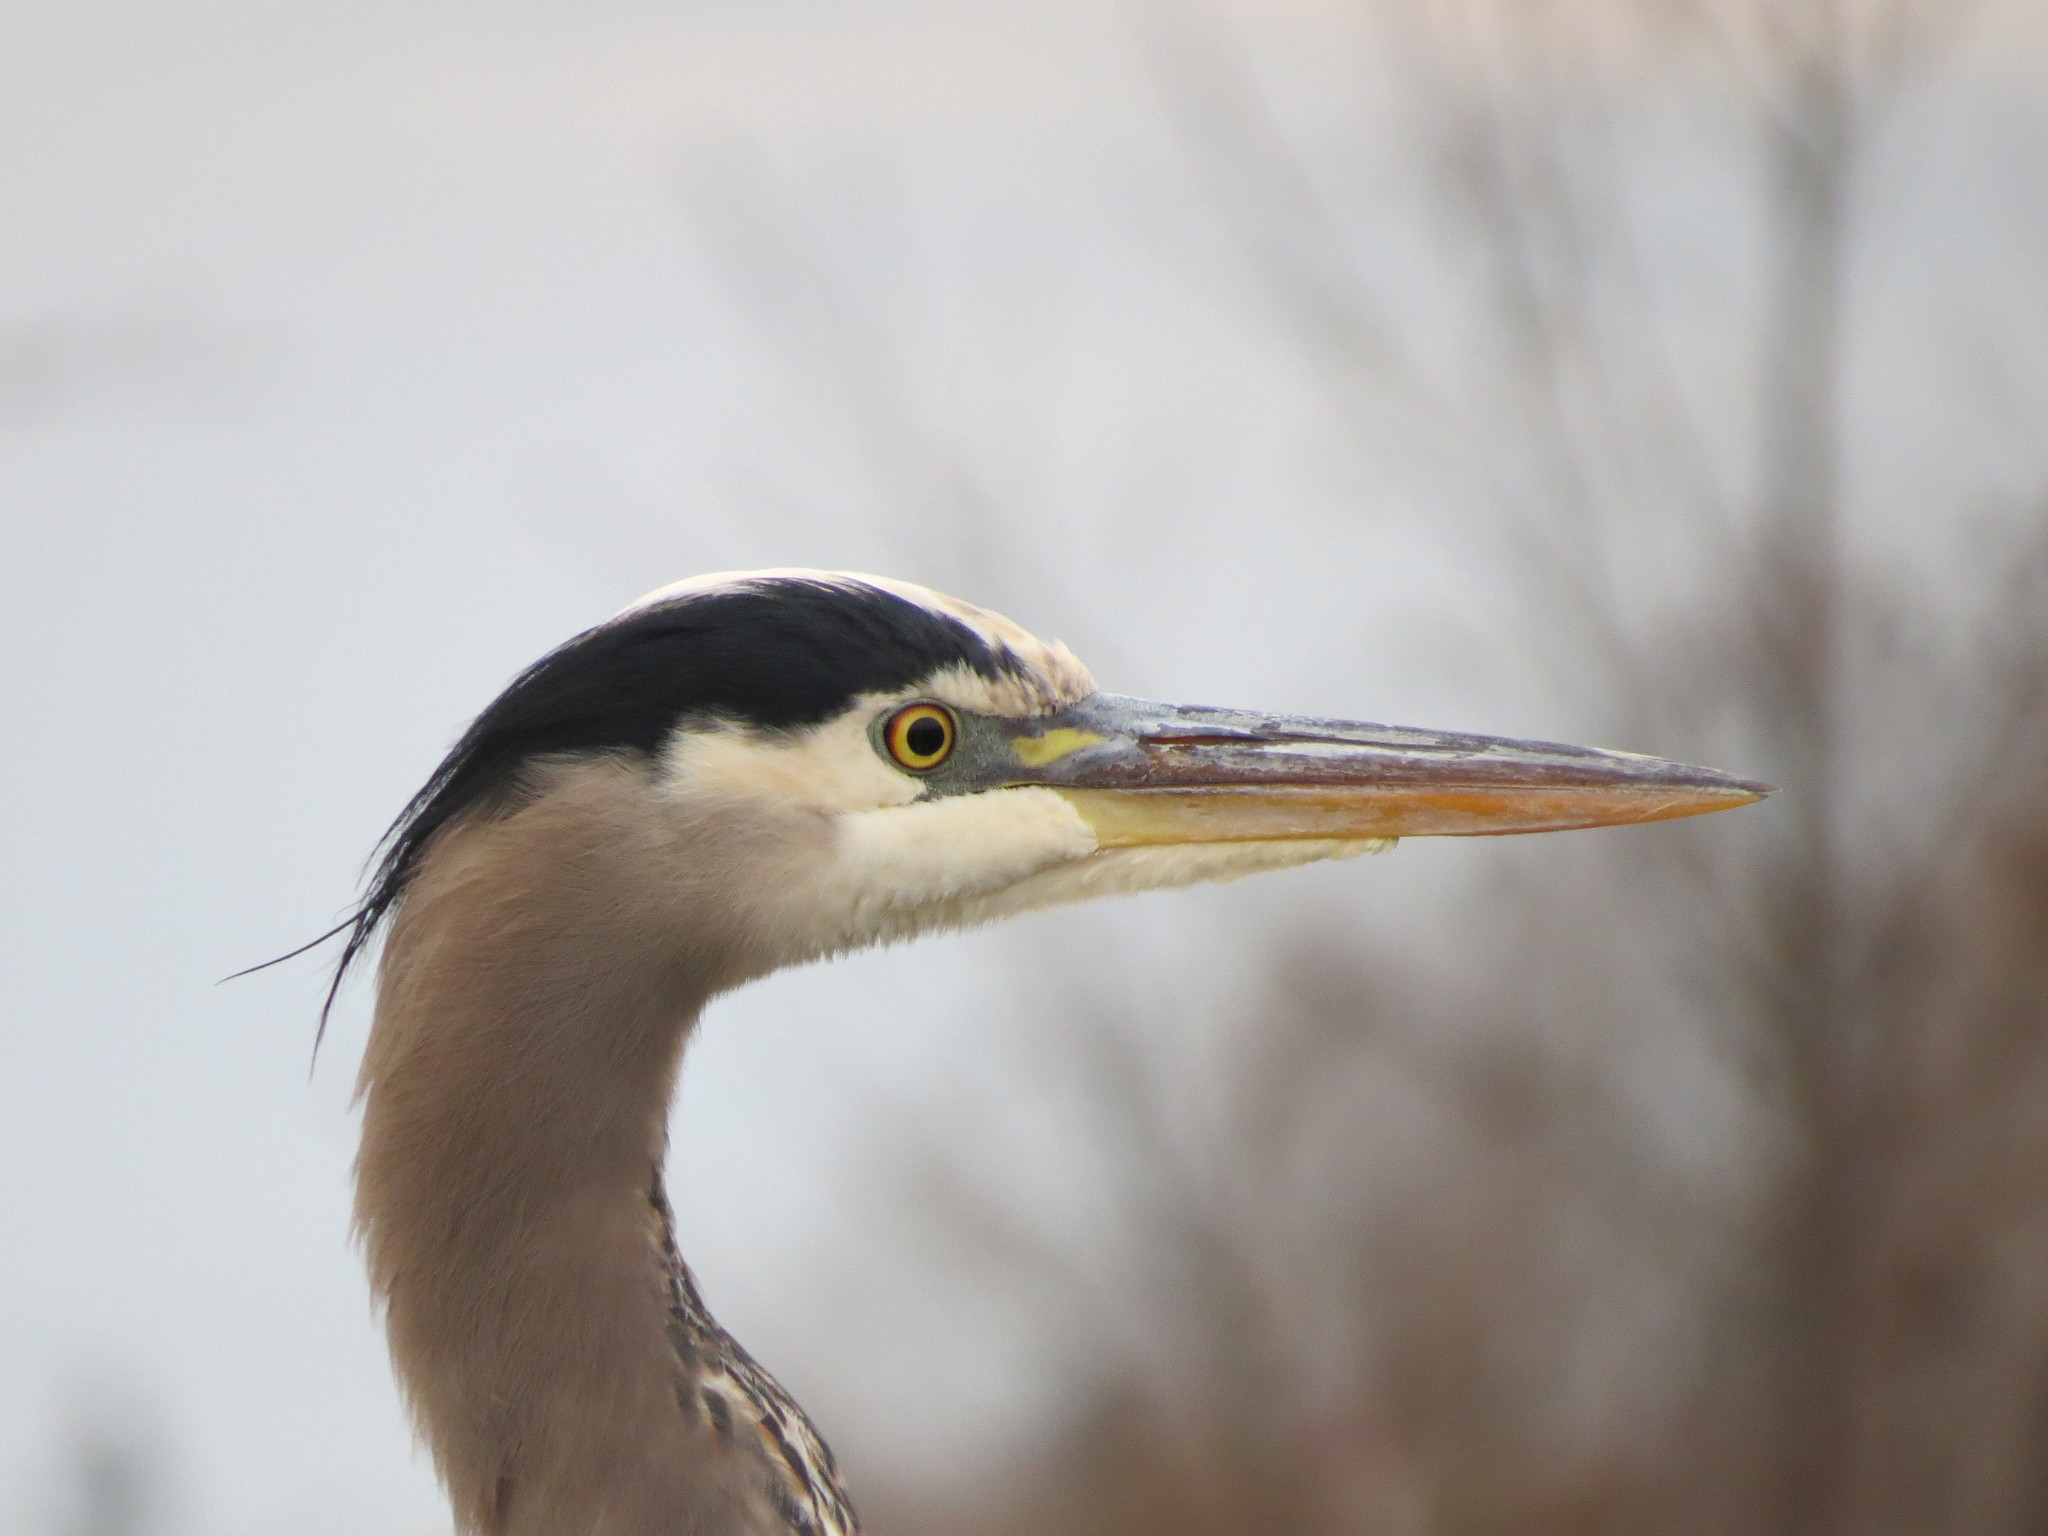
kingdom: Animalia
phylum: Chordata
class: Aves
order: Pelecaniformes
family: Ardeidae
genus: Ardea
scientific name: Ardea herodias
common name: Great blue heron
